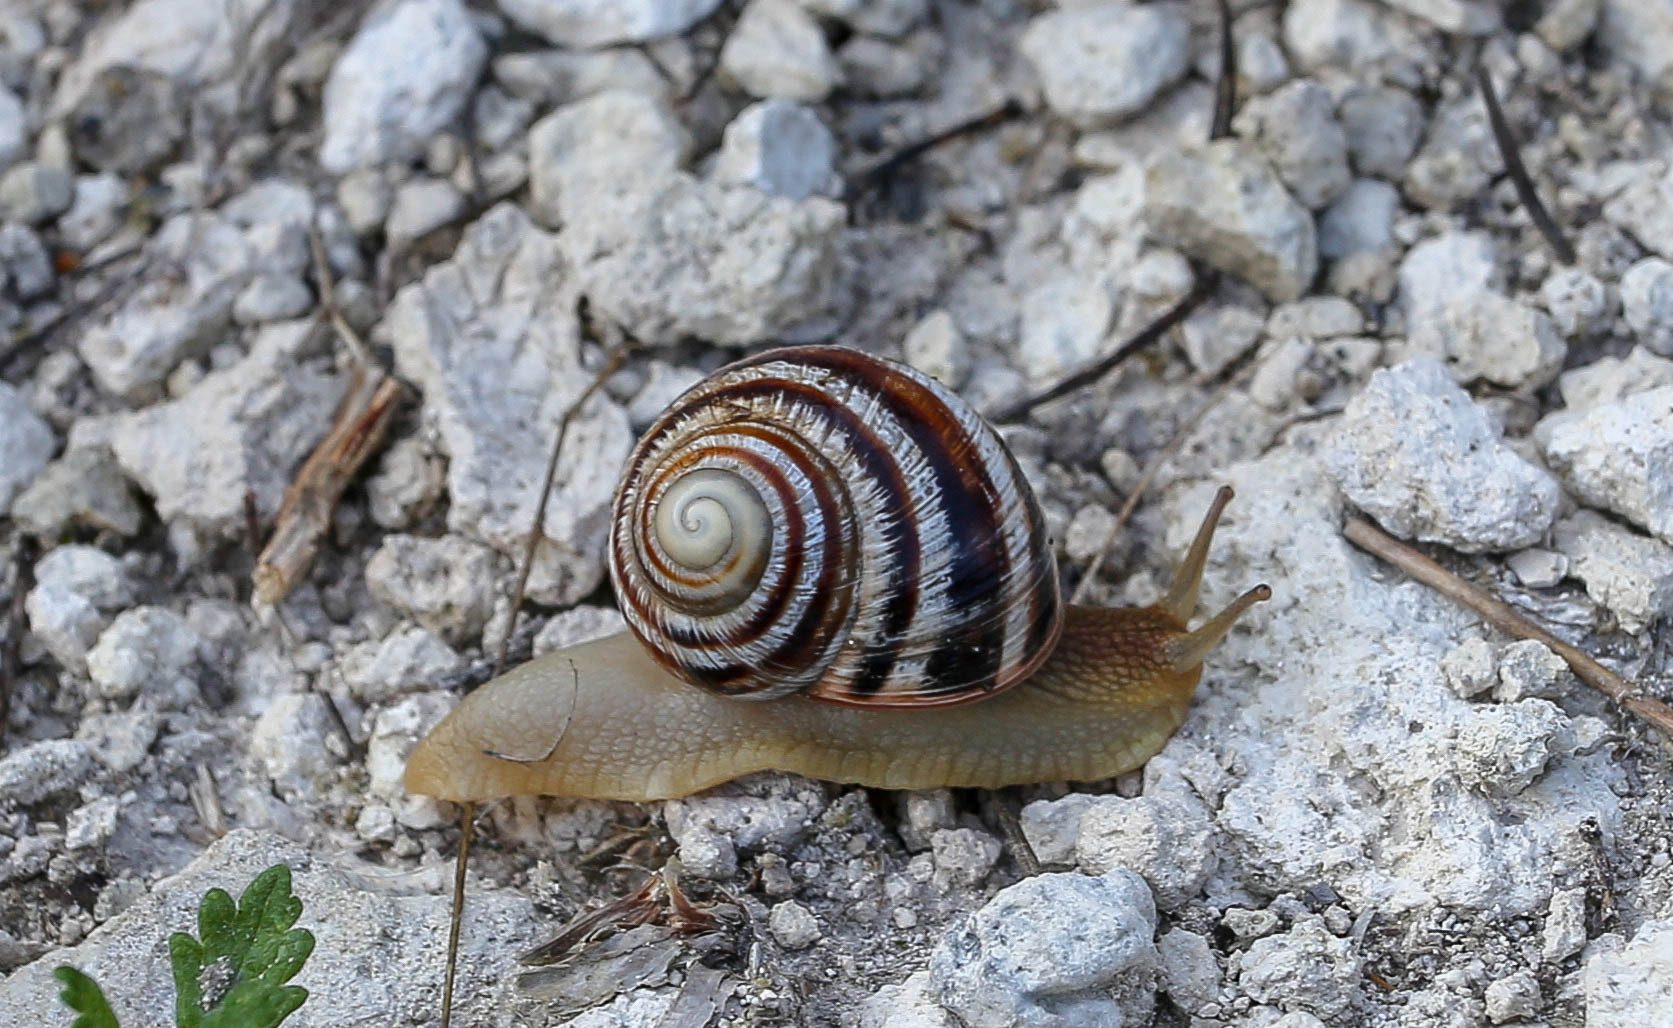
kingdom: Animalia
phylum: Mollusca
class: Gastropoda
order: Stylommatophora
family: Helicidae
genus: Helix
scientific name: Helix albescens
